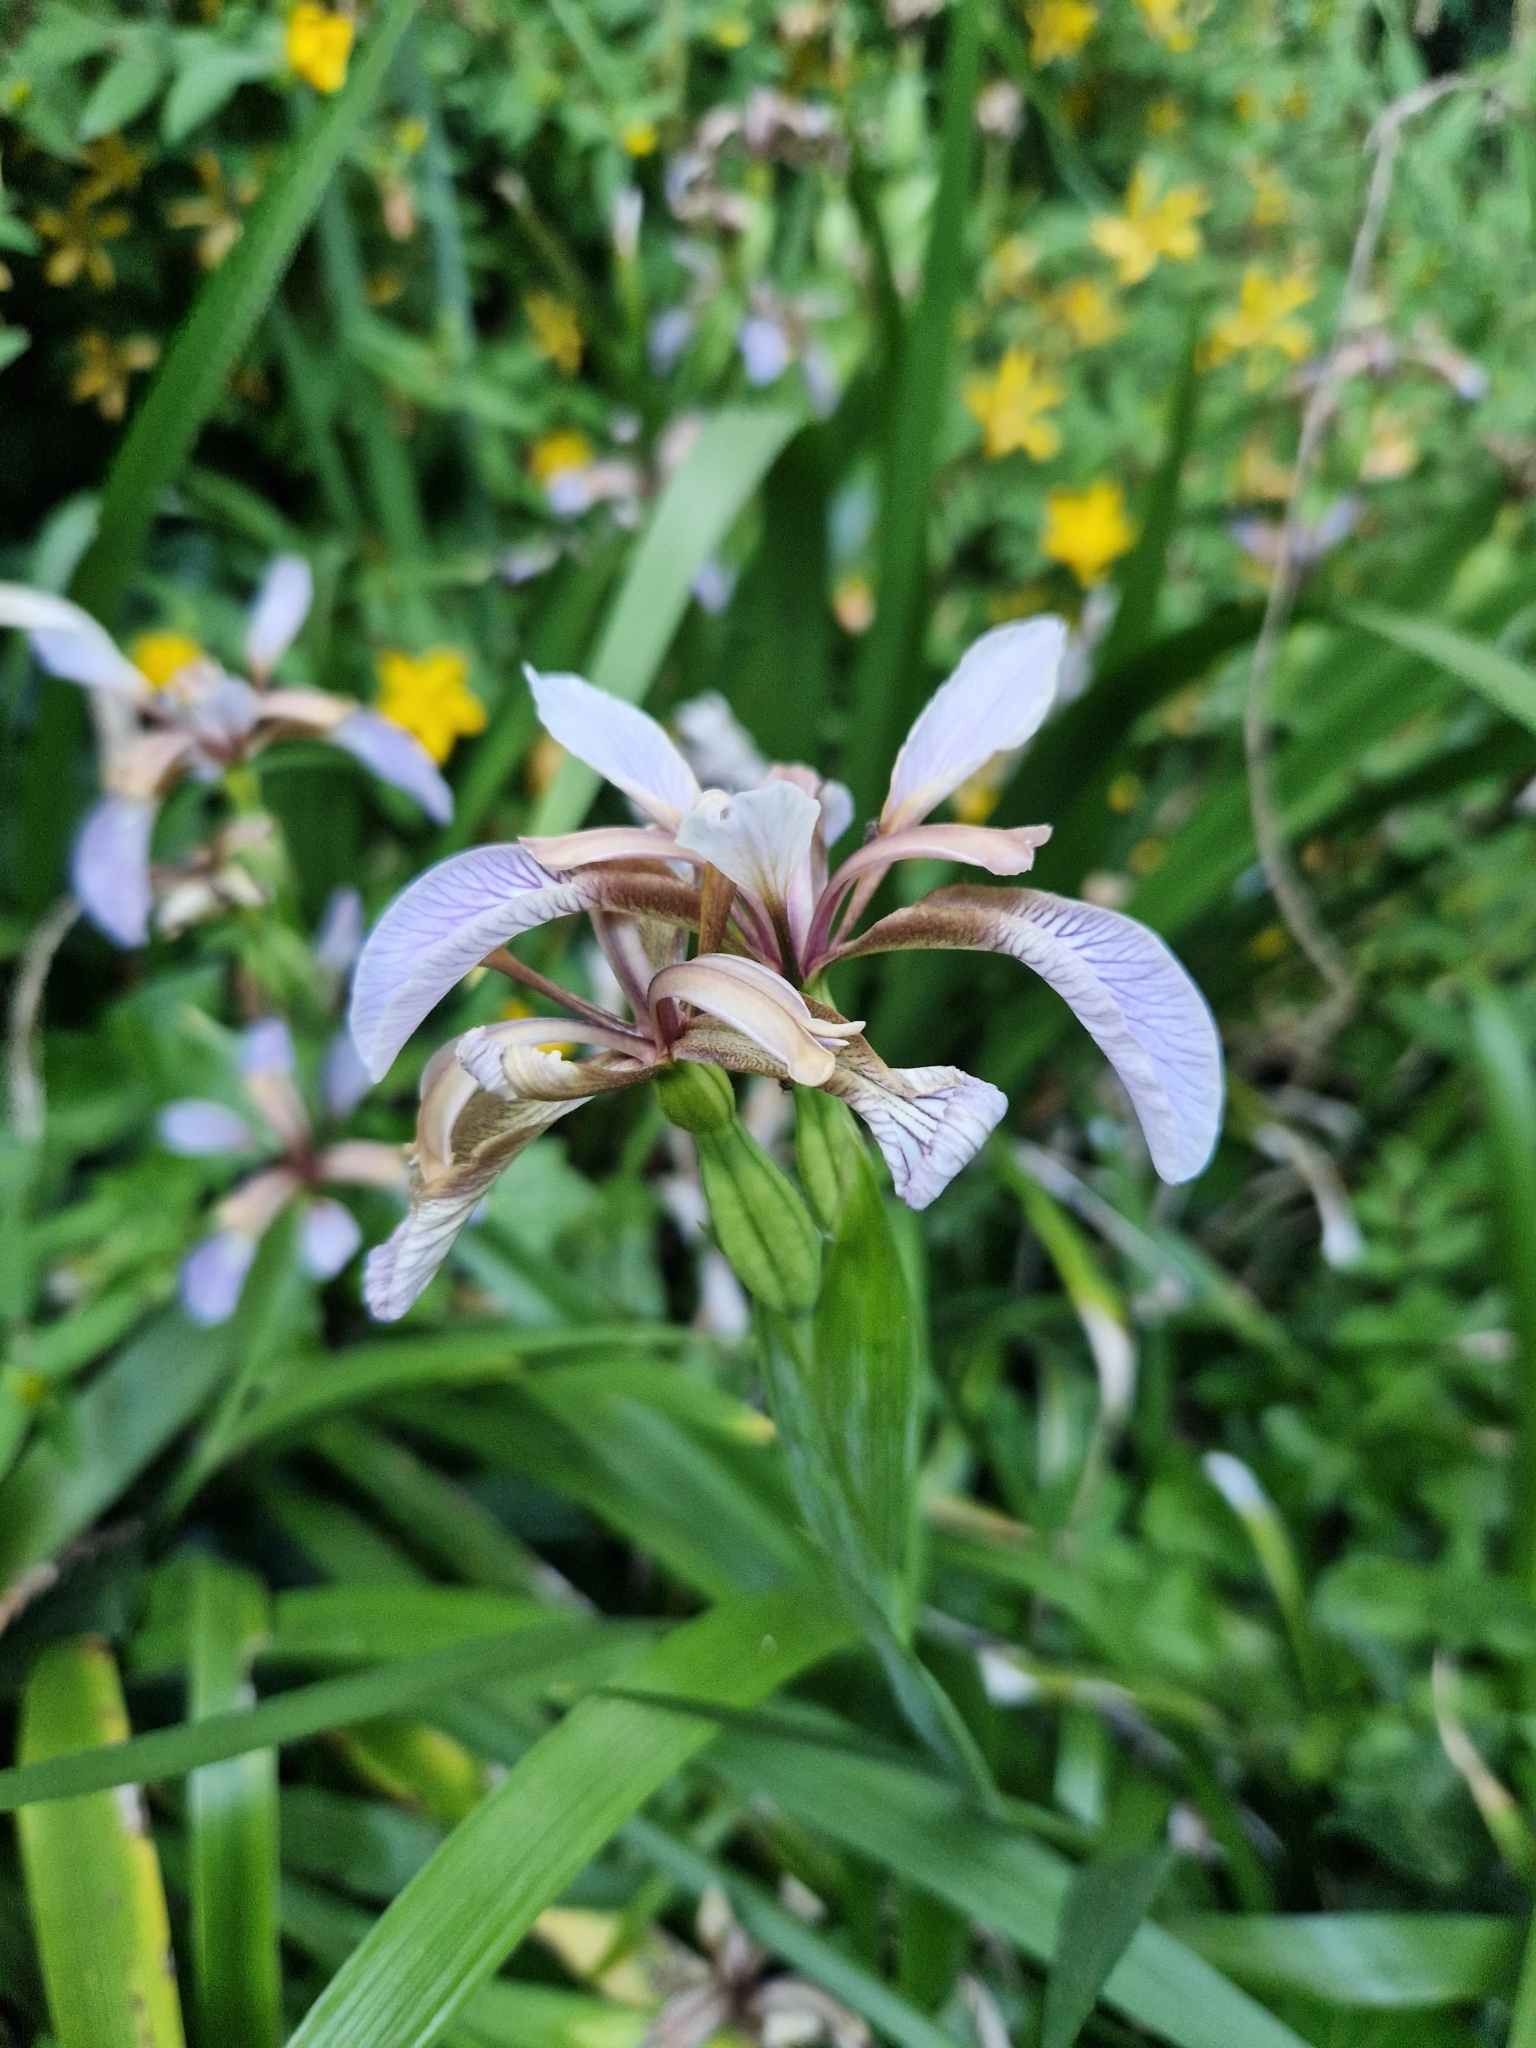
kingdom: Plantae
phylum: Tracheophyta
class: Liliopsida
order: Asparagales
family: Iridaceae
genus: Iris
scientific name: Iris foetidissima
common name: Stinking iris
